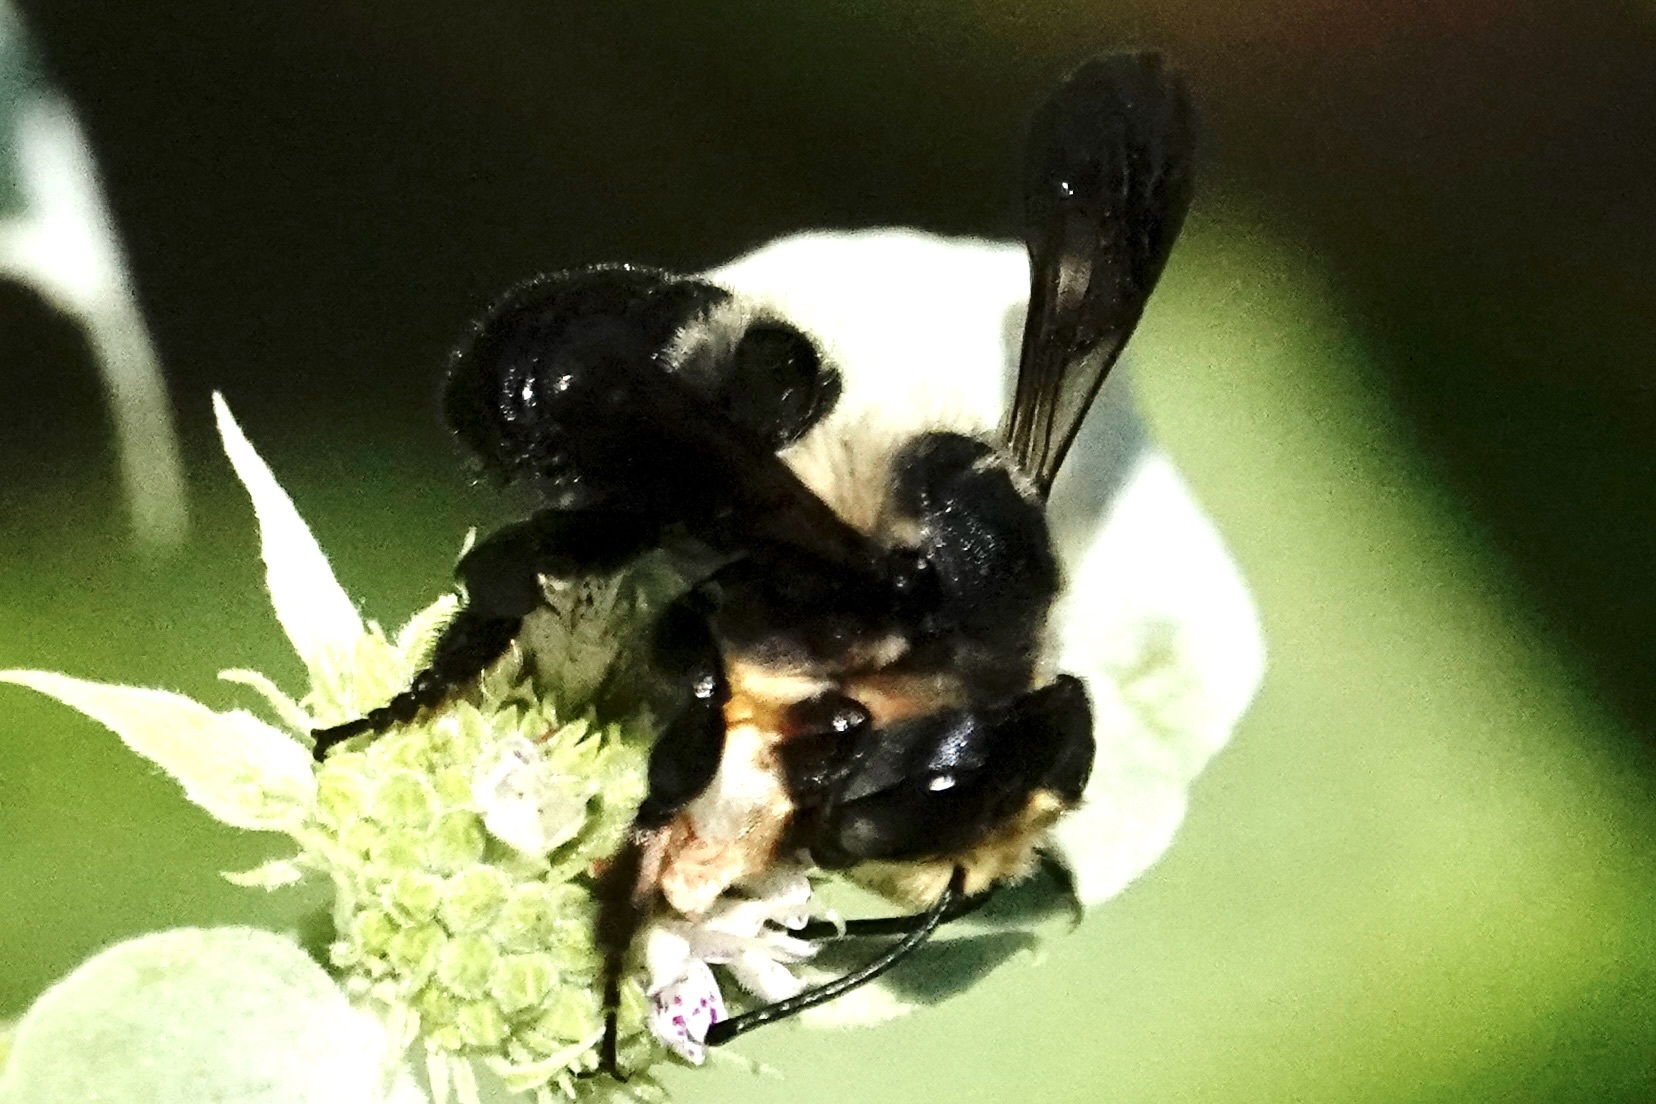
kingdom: Animalia
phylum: Arthropoda
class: Insecta
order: Hymenoptera
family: Megachilidae
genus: Megachile
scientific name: Megachile xylocopoides
